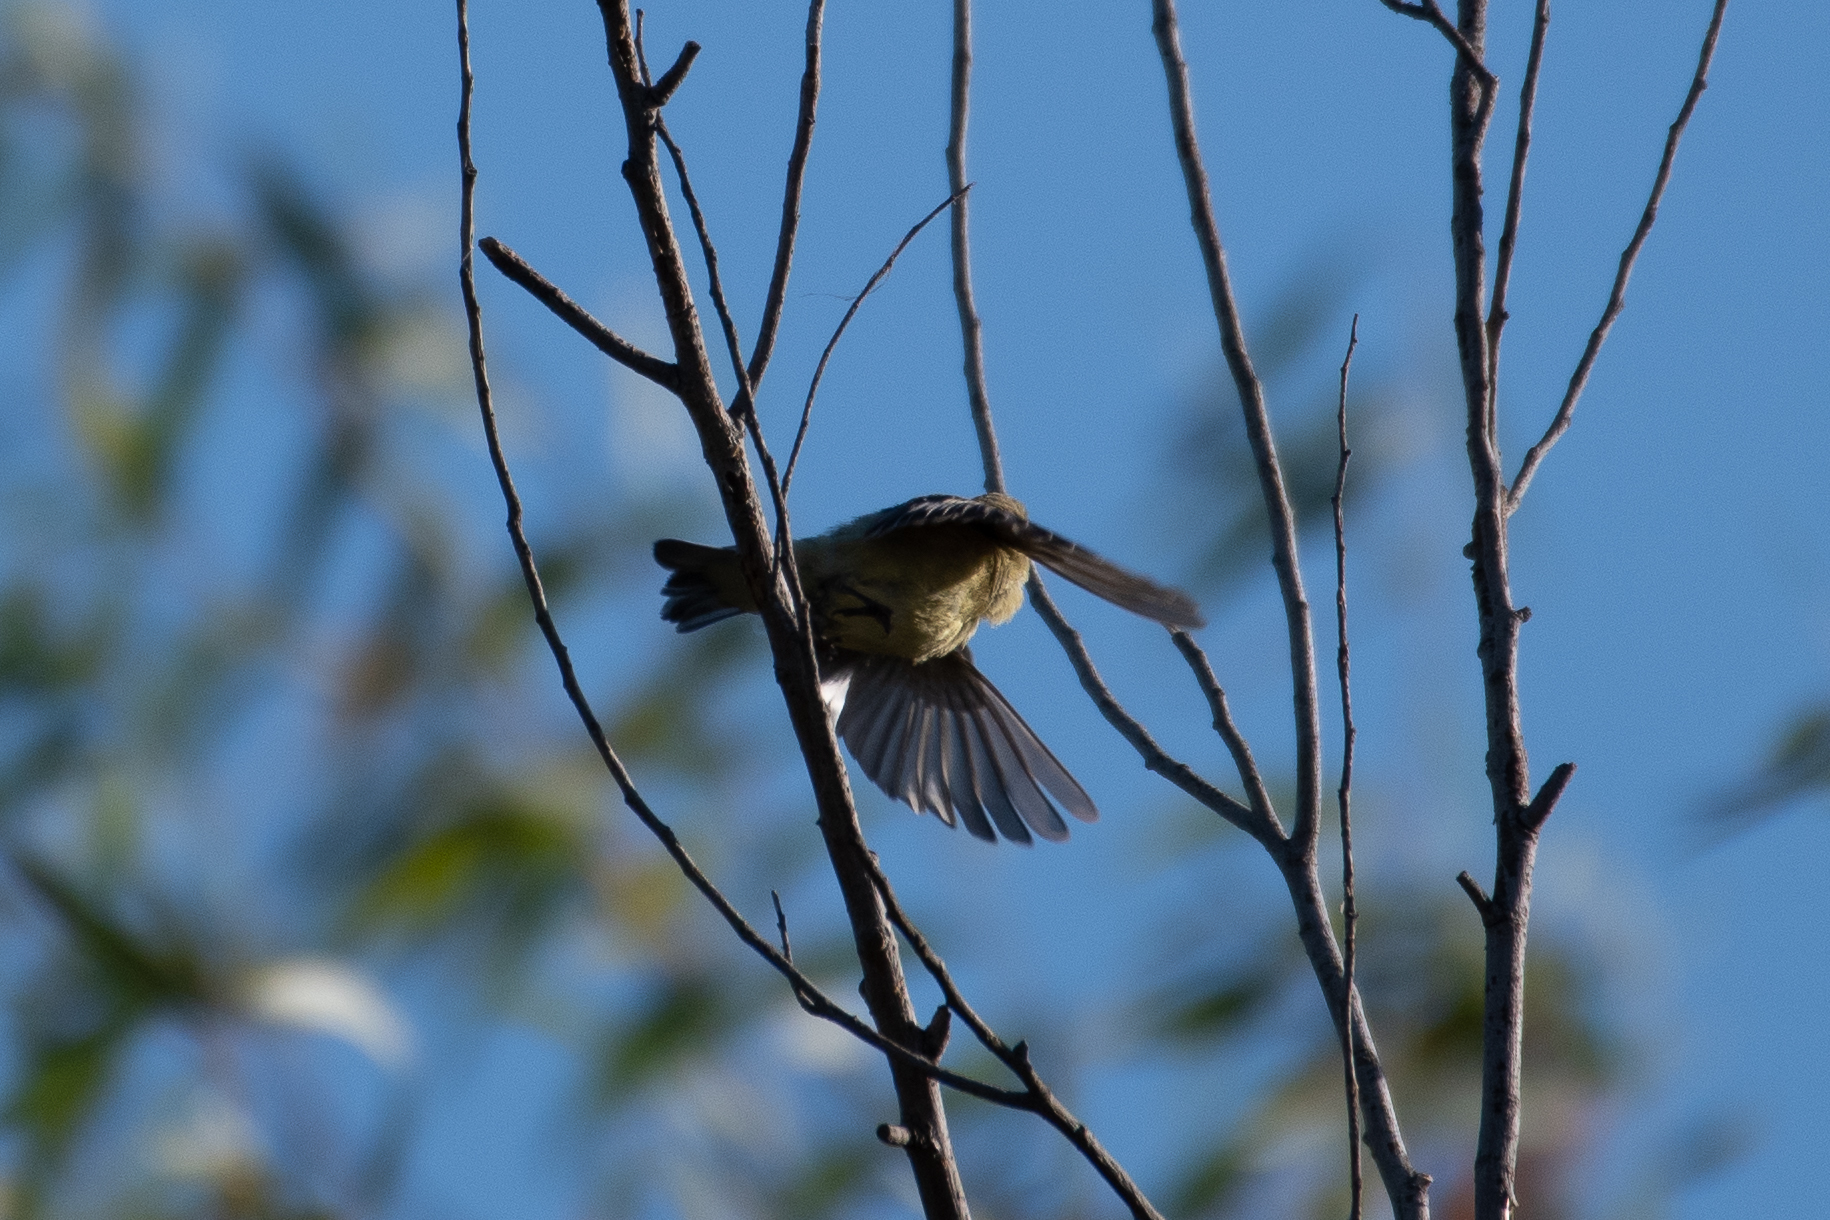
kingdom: Animalia
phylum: Chordata
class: Aves
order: Passeriformes
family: Fringillidae
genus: Spinus
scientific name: Spinus psaltria
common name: Lesser goldfinch
